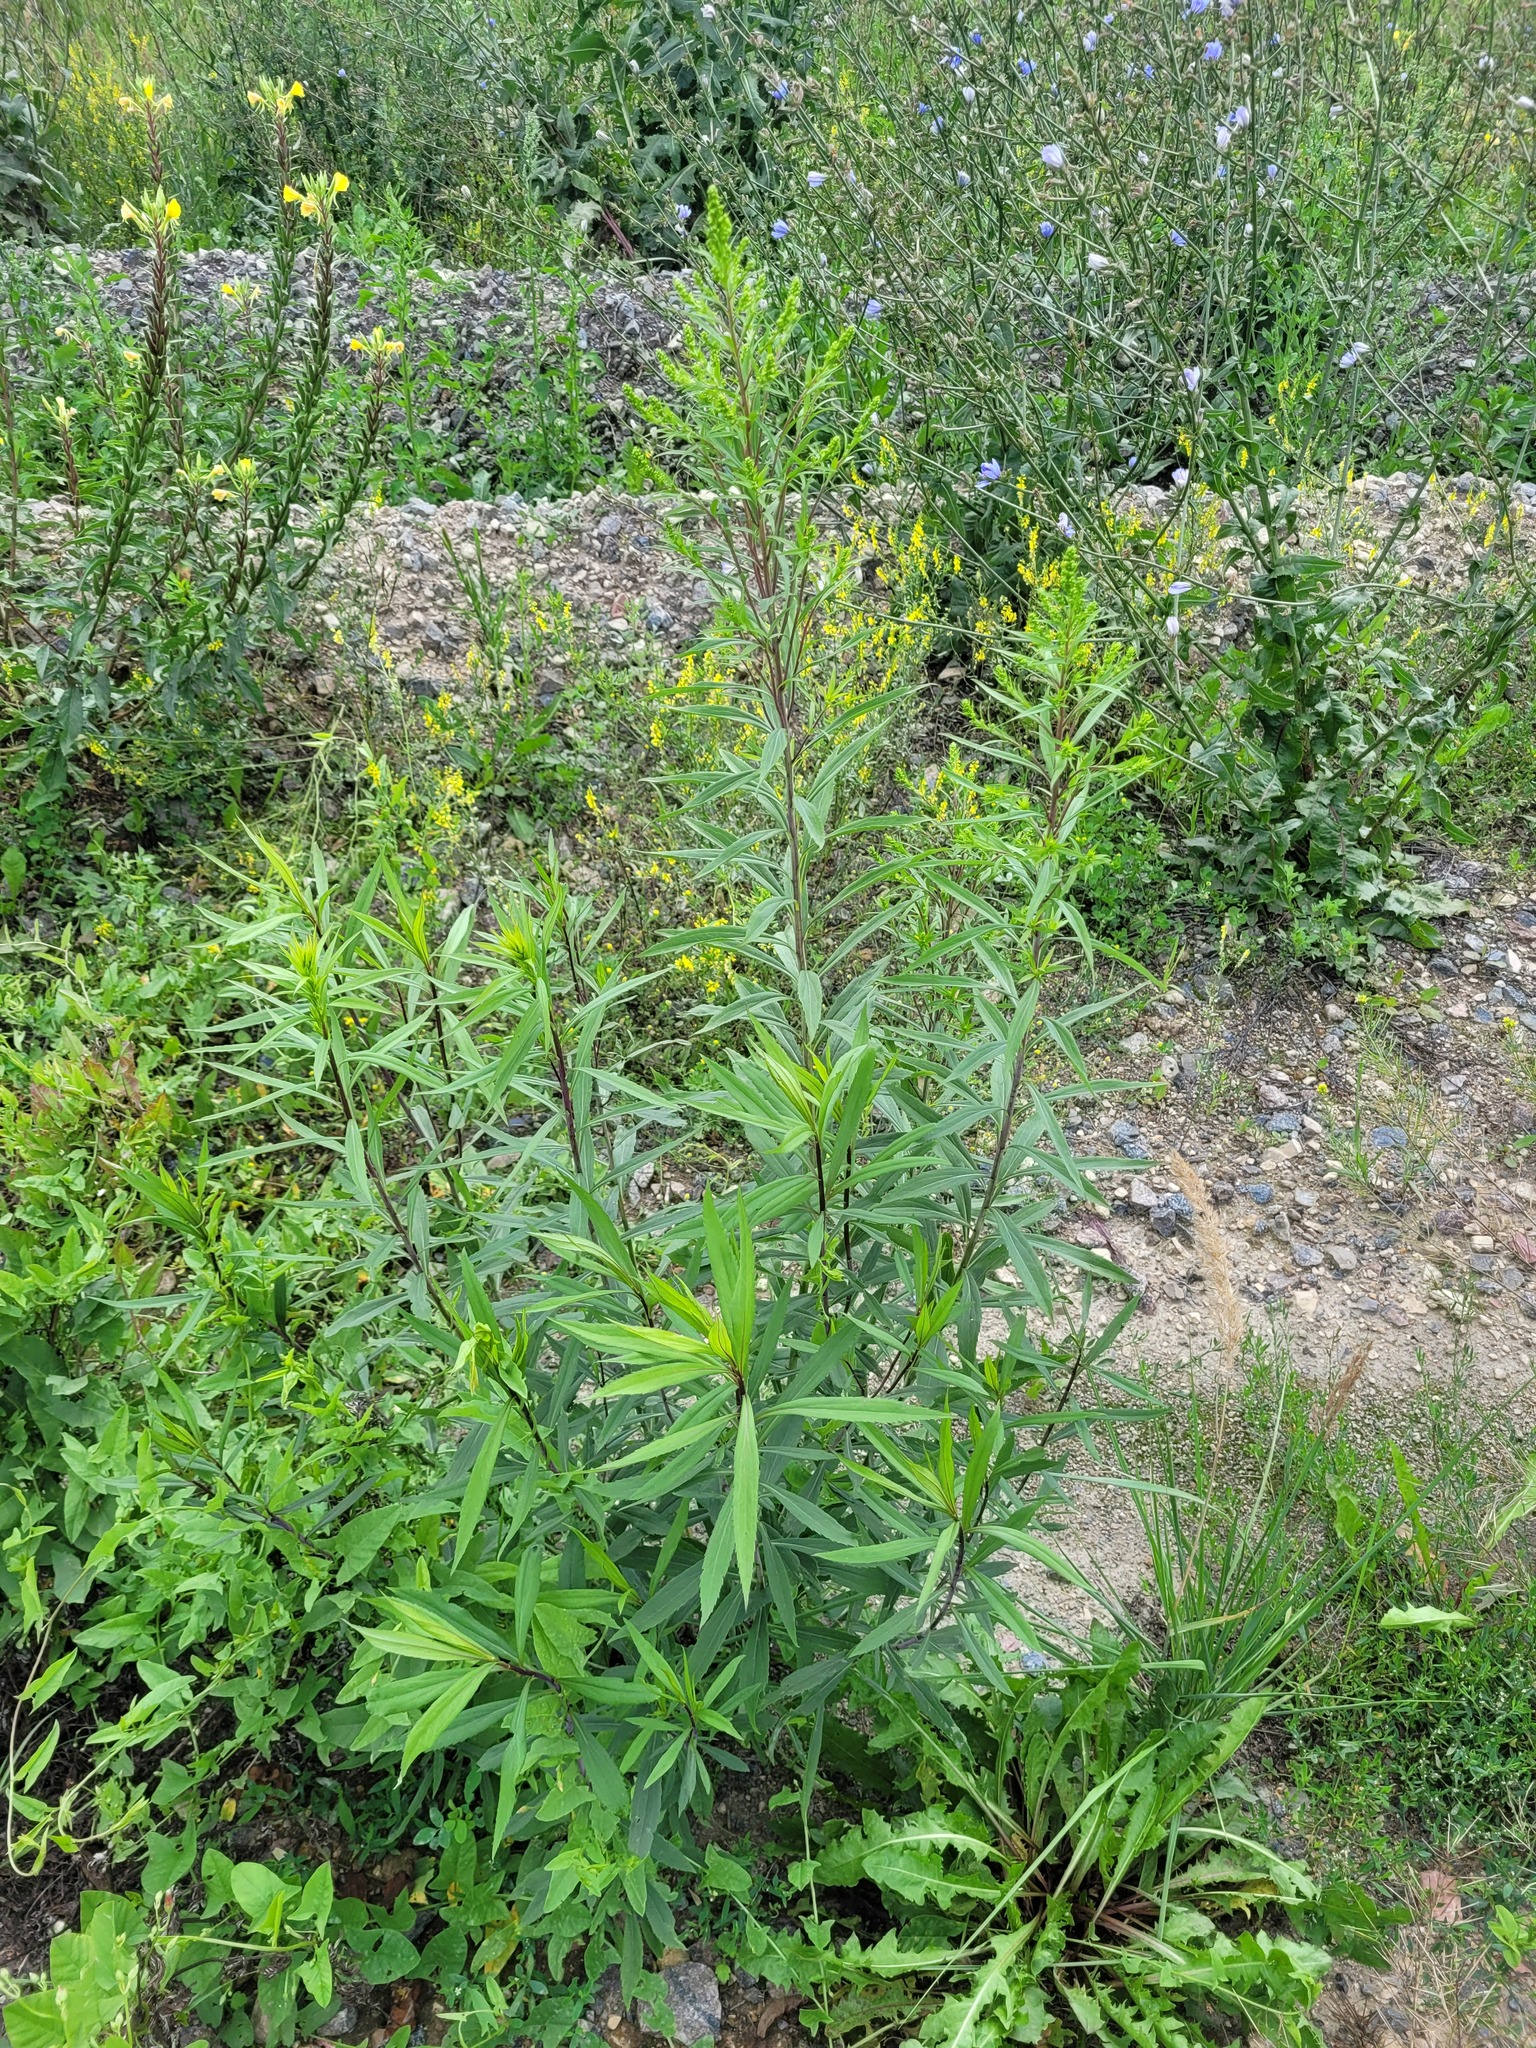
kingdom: Plantae
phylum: Tracheophyta
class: Magnoliopsida
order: Asterales
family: Asteraceae
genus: Solidago
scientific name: Solidago gigantea
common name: Giant goldenrod
